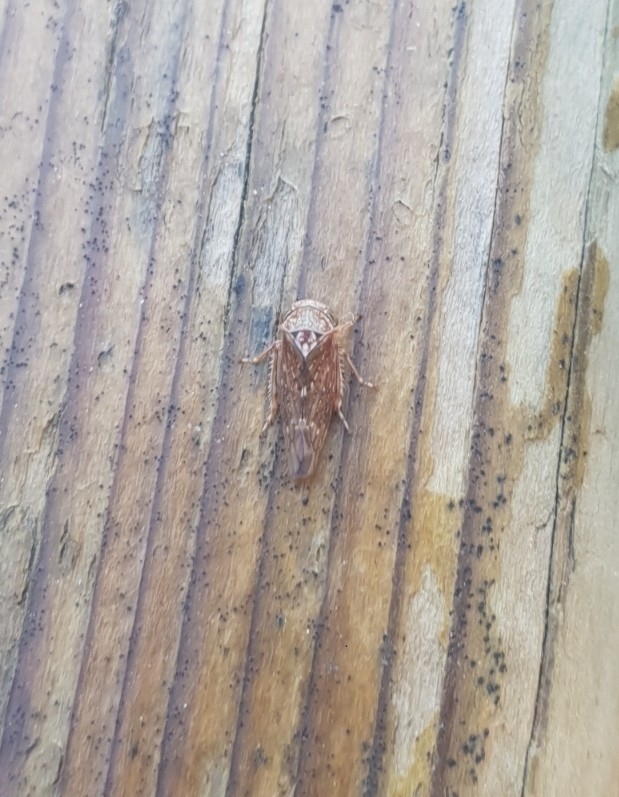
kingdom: Animalia
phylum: Arthropoda
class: Insecta
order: Hemiptera
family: Cicadellidae
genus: Acericerus
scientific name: Acericerus ribauti
